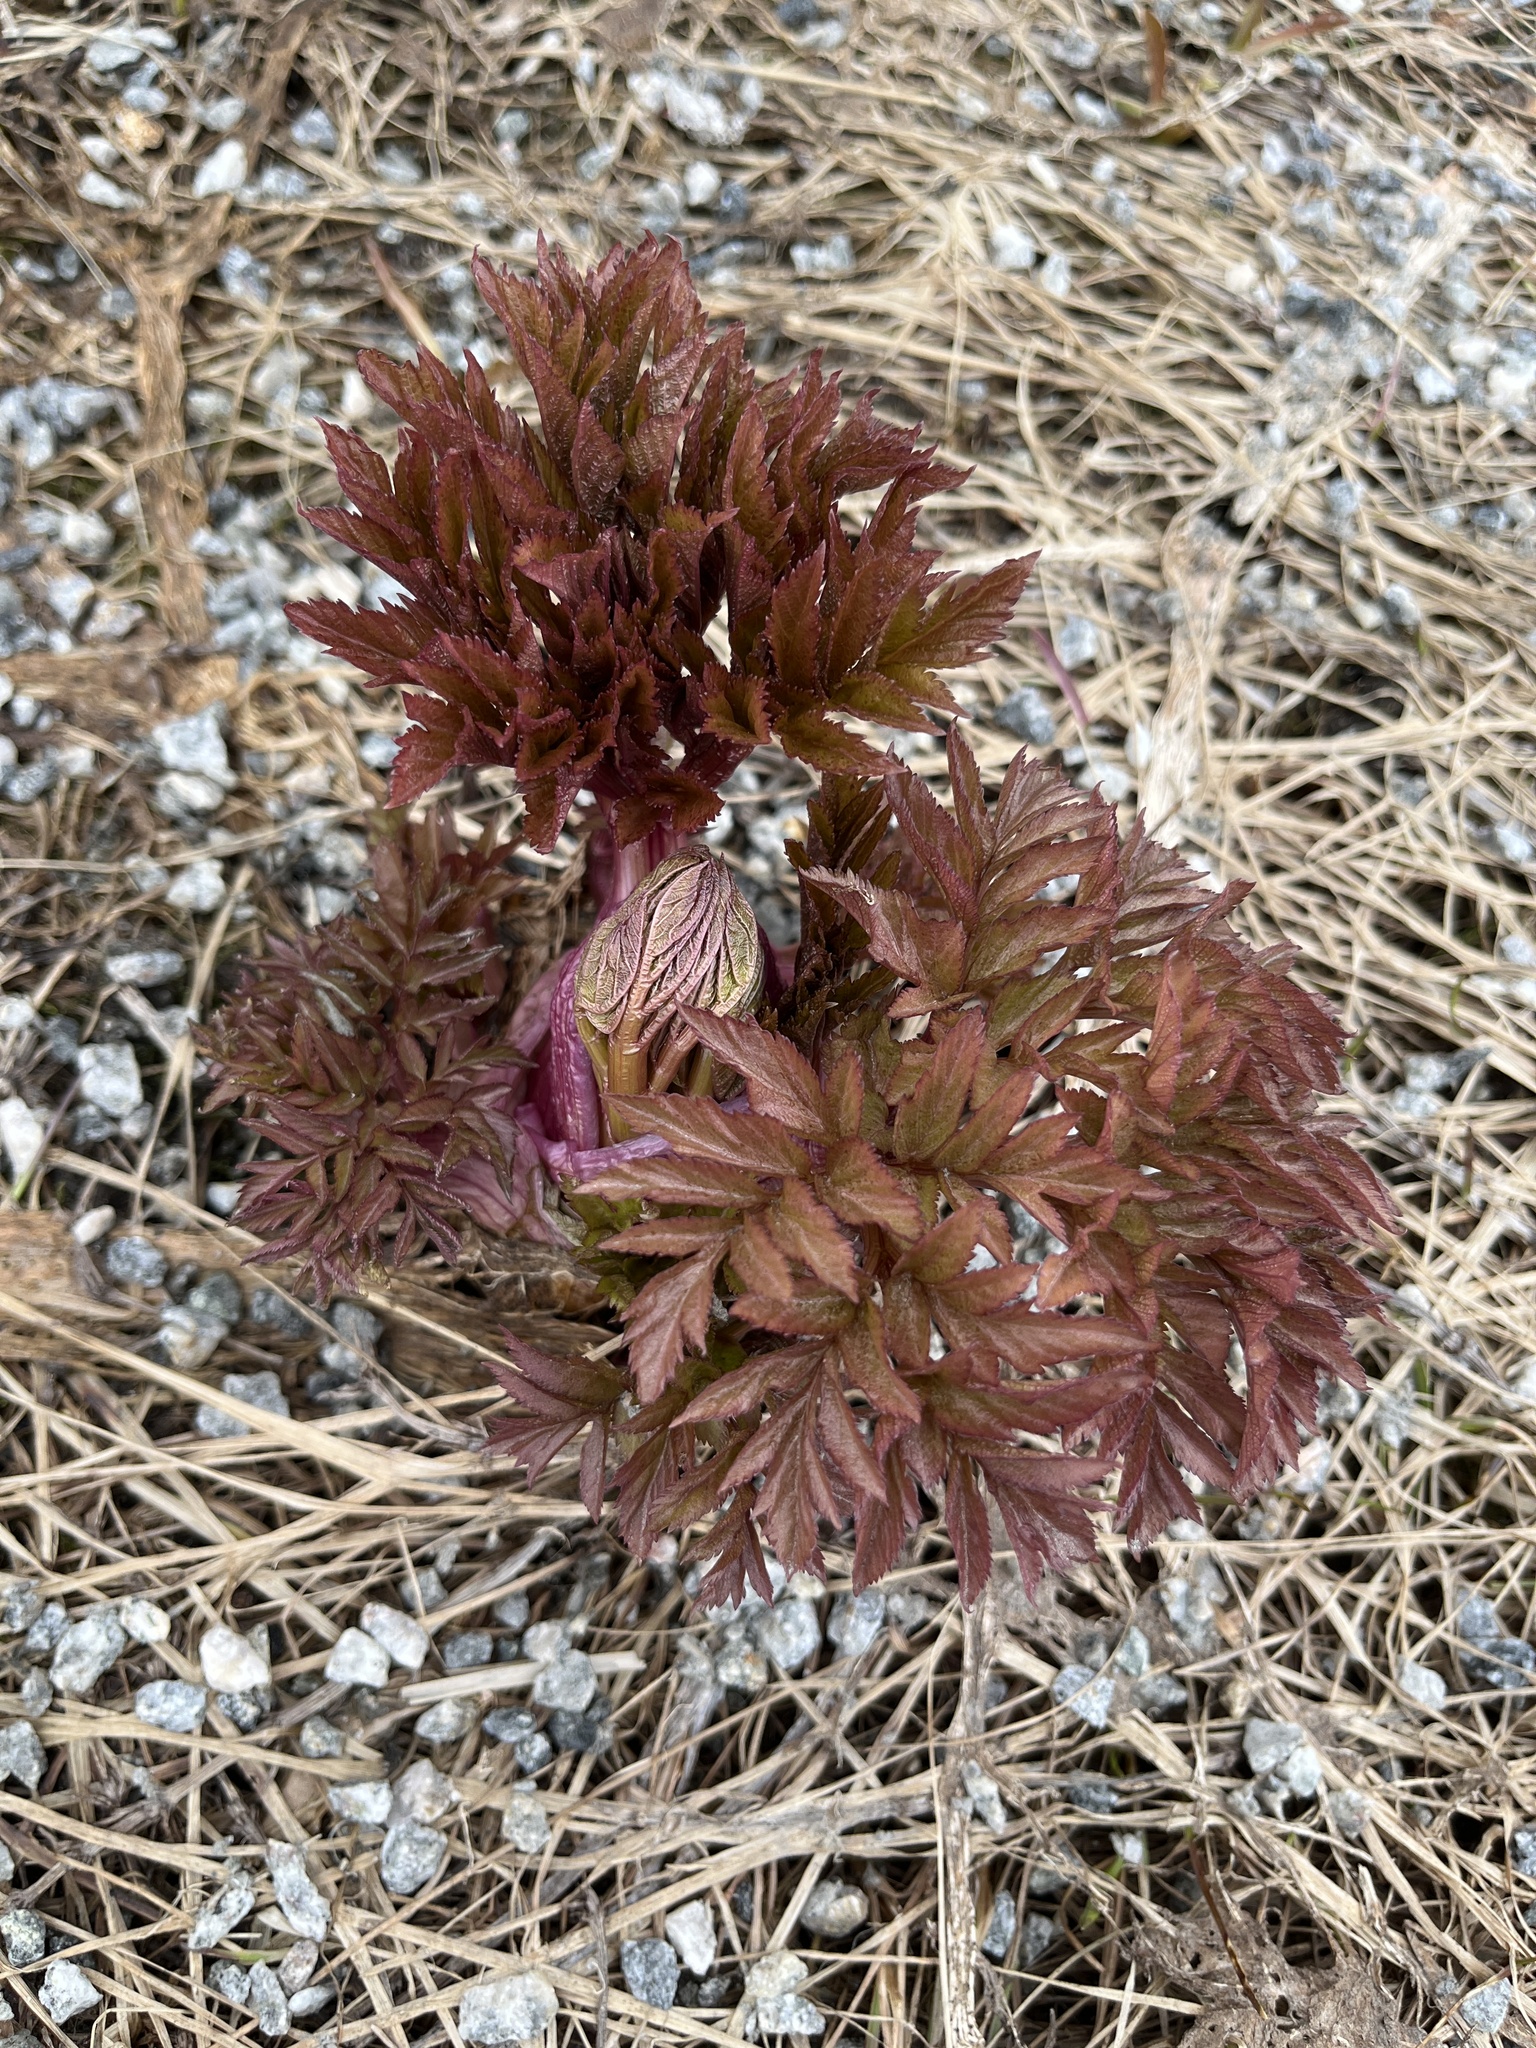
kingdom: Plantae
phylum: Tracheophyta
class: Magnoliopsida
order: Apiales
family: Apiaceae
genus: Angelica
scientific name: Angelica archangelica
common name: Garden angelica
